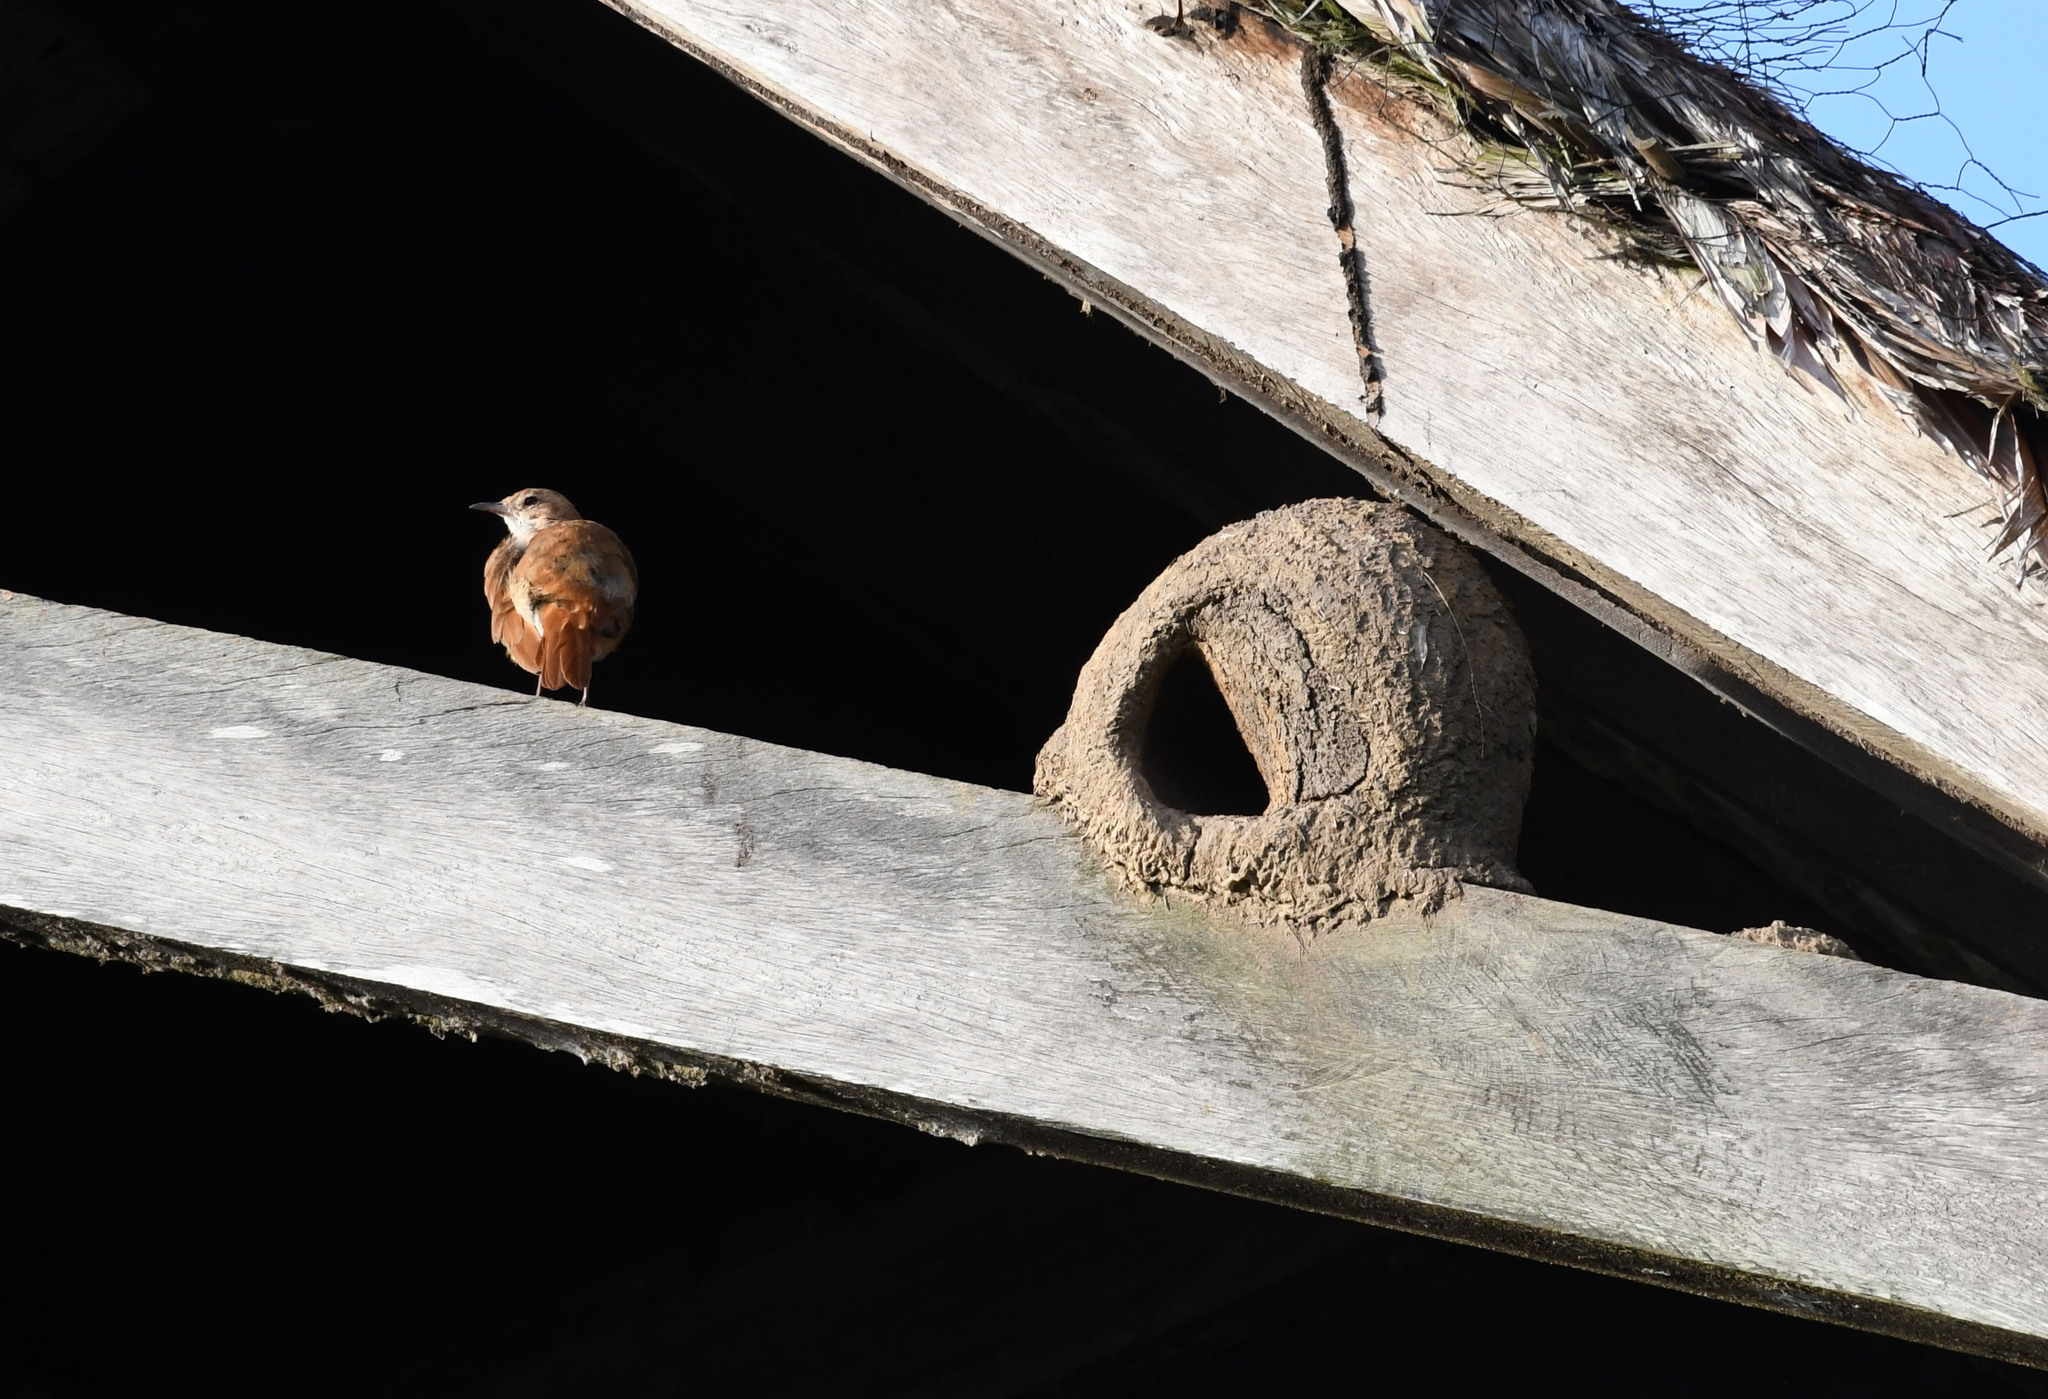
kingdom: Animalia
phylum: Chordata
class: Aves
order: Passeriformes
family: Furnariidae
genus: Furnarius
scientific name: Furnarius rufus
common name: Rufous hornero
